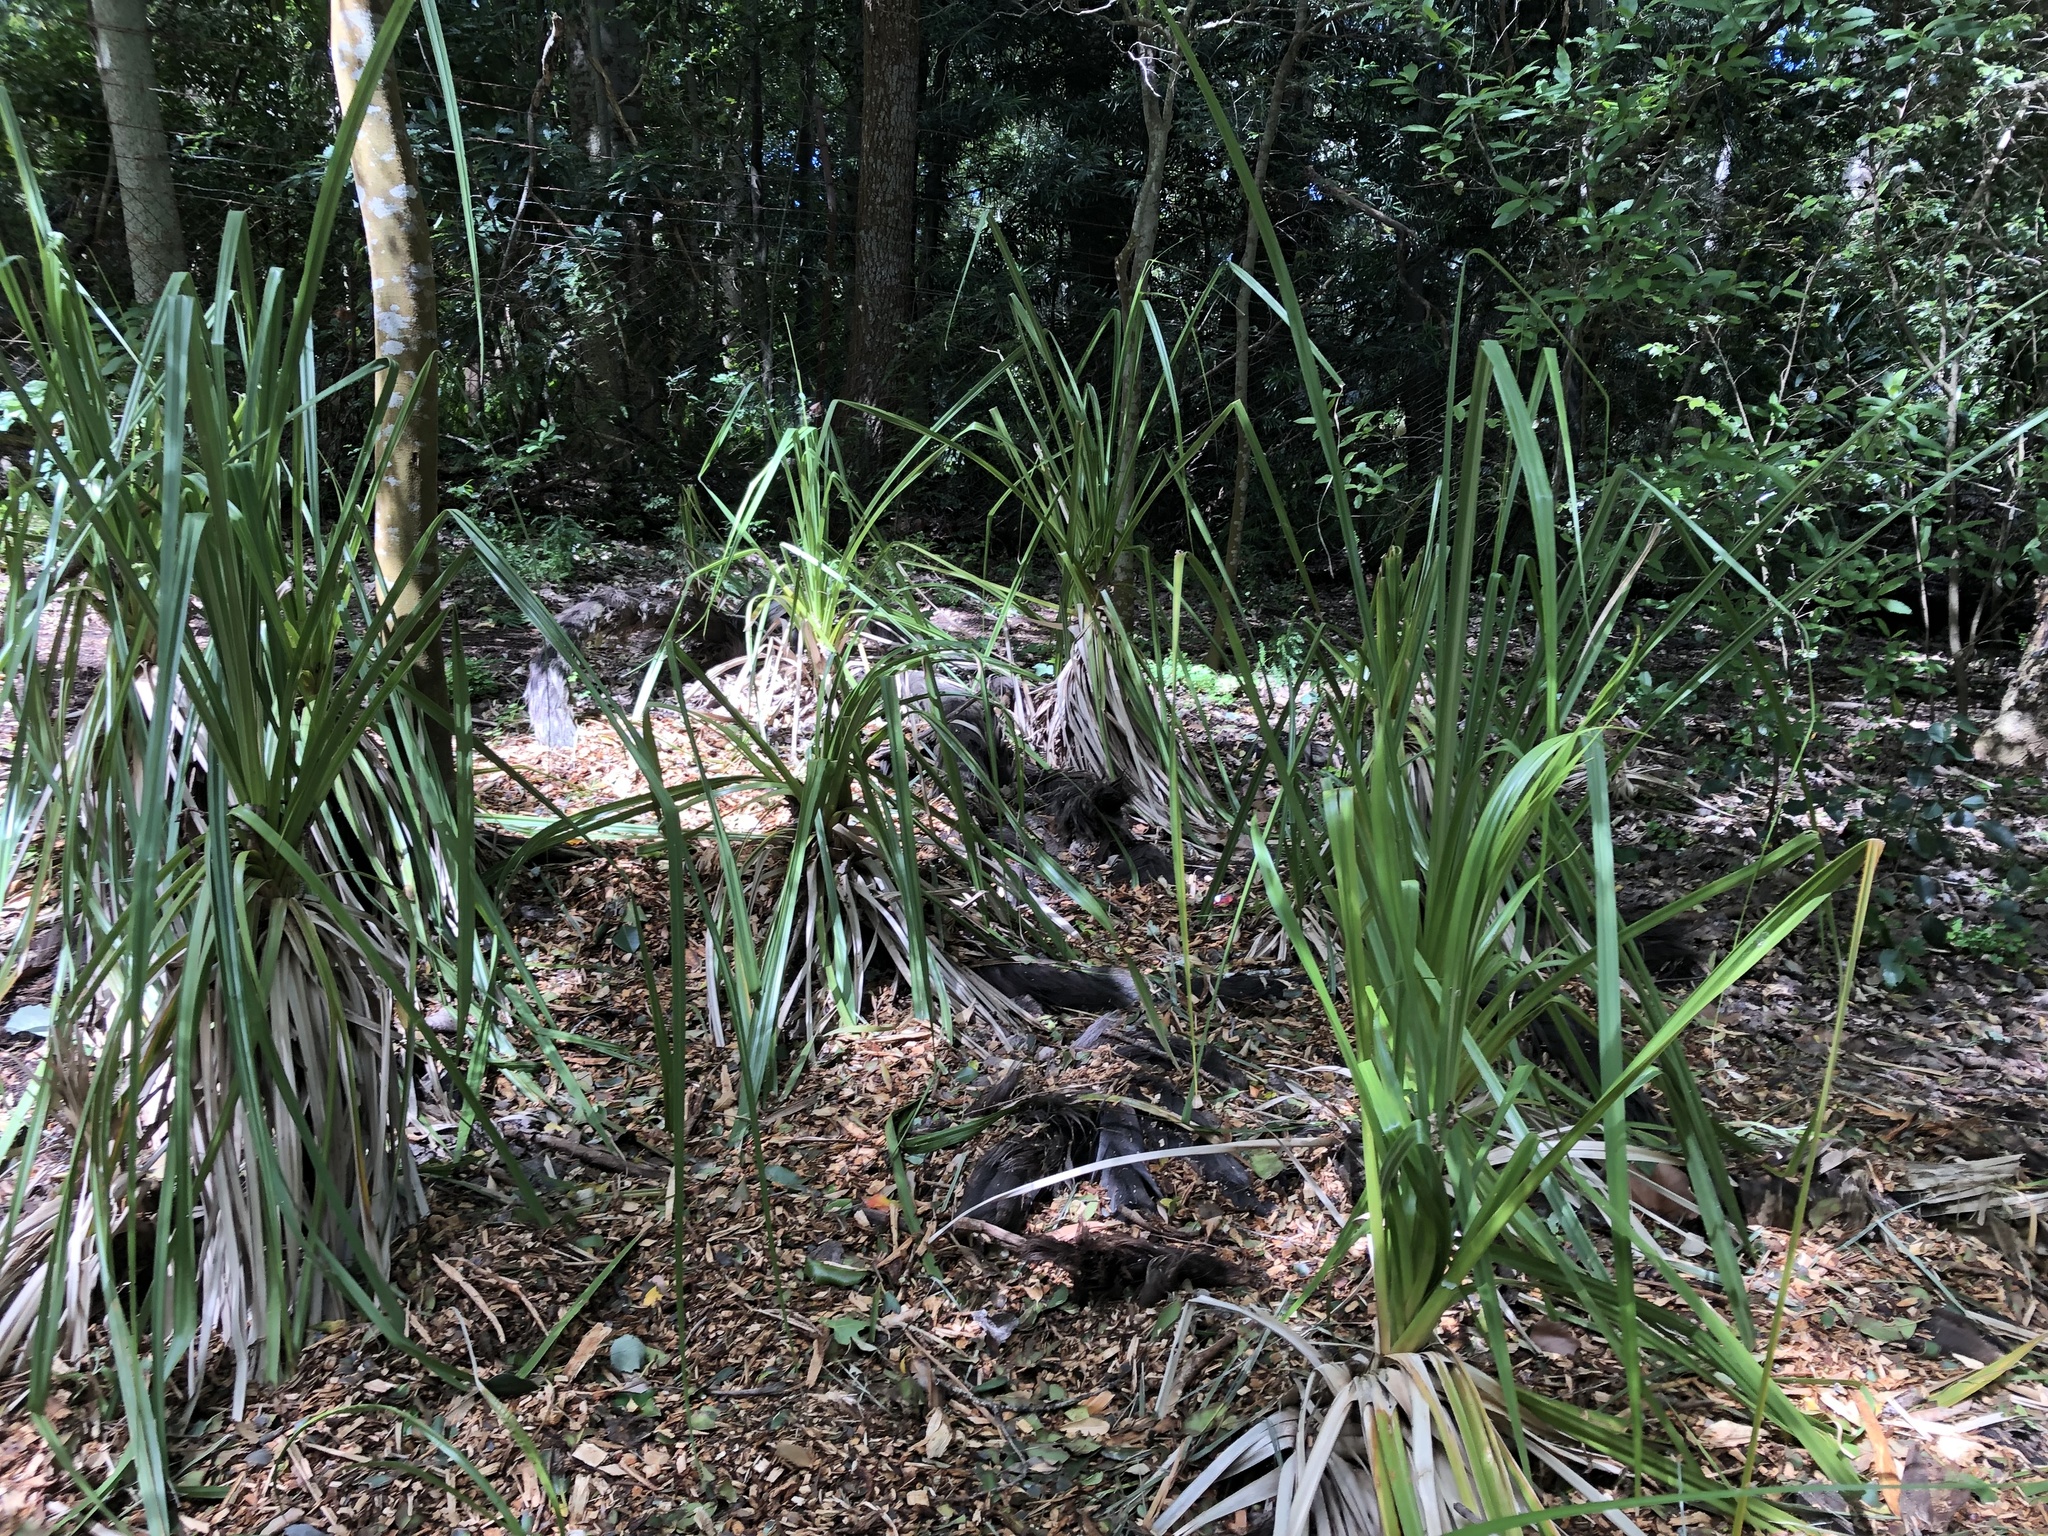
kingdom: Plantae
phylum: Tracheophyta
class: Liliopsida
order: Poales
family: Thurniaceae
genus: Prionium
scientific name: Prionium serratum
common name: Palmiet
